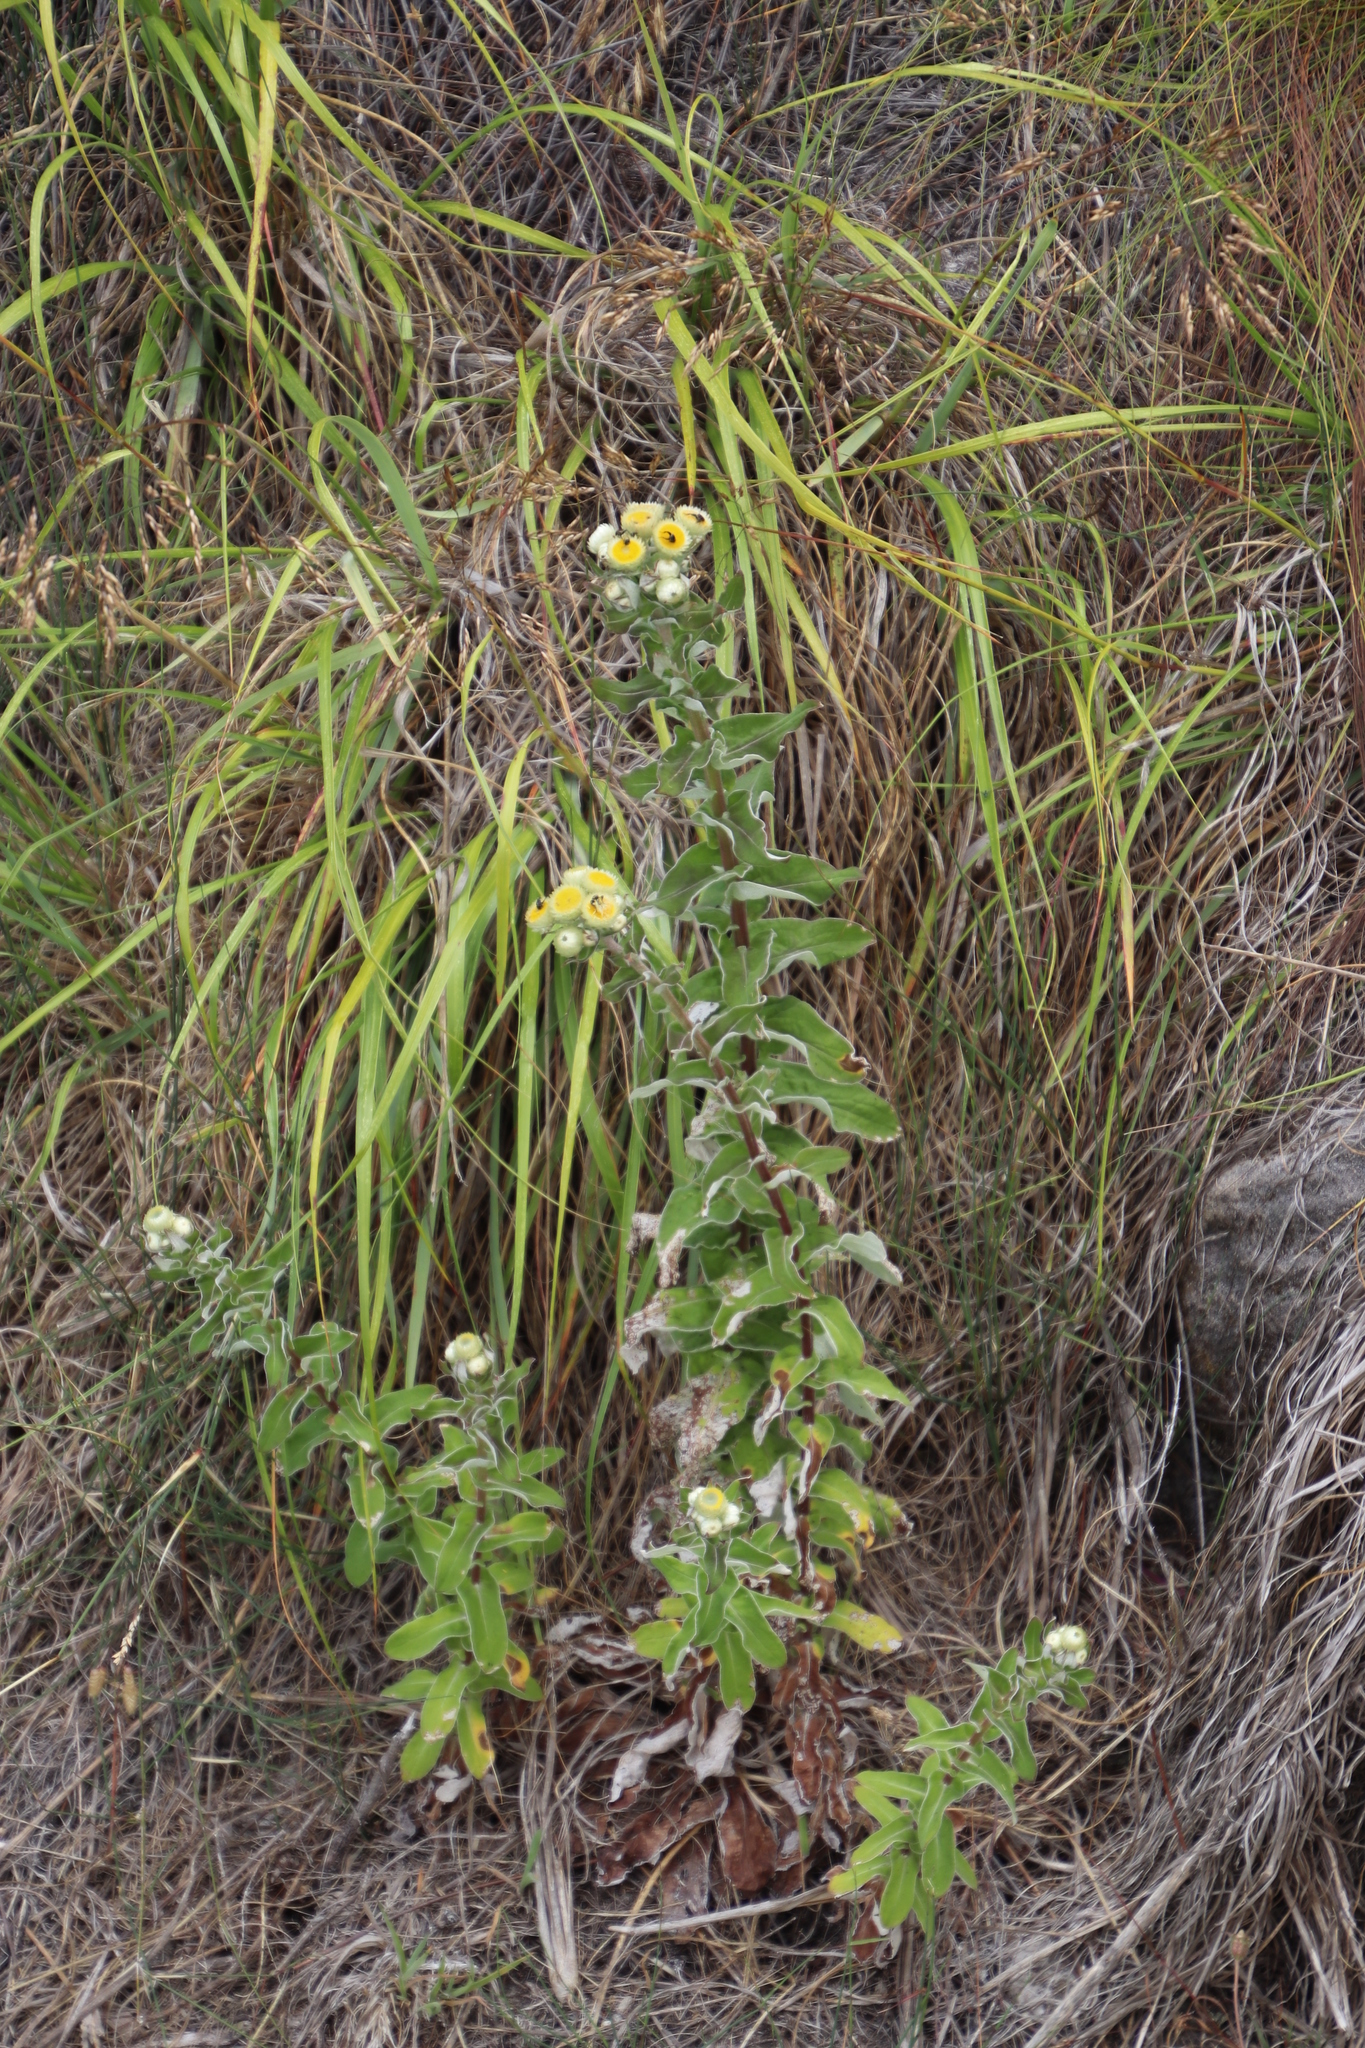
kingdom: Plantae
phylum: Tracheophyta
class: Magnoliopsida
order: Asterales
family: Asteraceae
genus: Helichrysum
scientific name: Helichrysum foetidum
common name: Stinking everlasting
